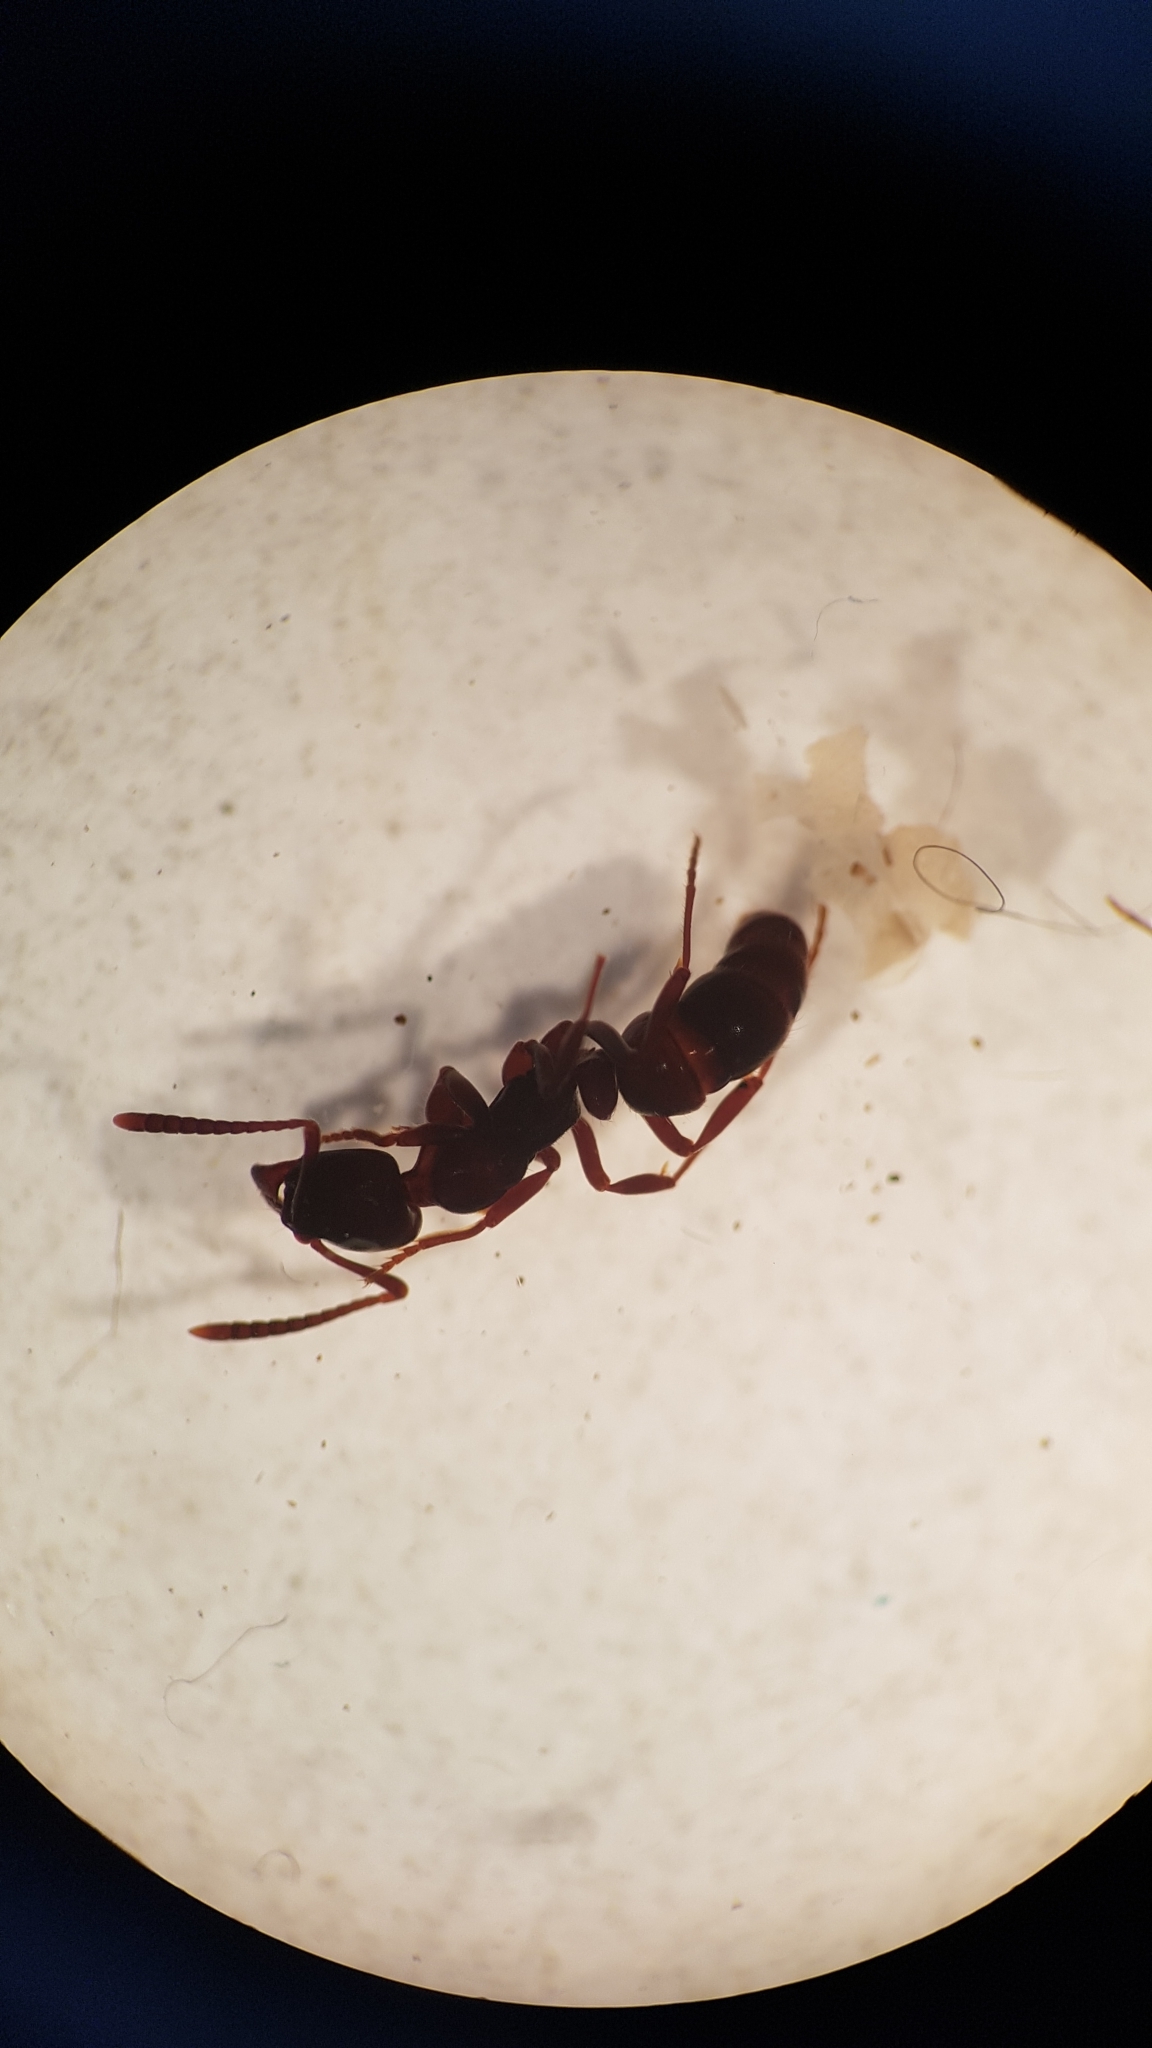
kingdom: Animalia
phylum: Arthropoda
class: Insecta
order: Hymenoptera
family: Formicidae
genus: Austroponera
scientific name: Austroponera
